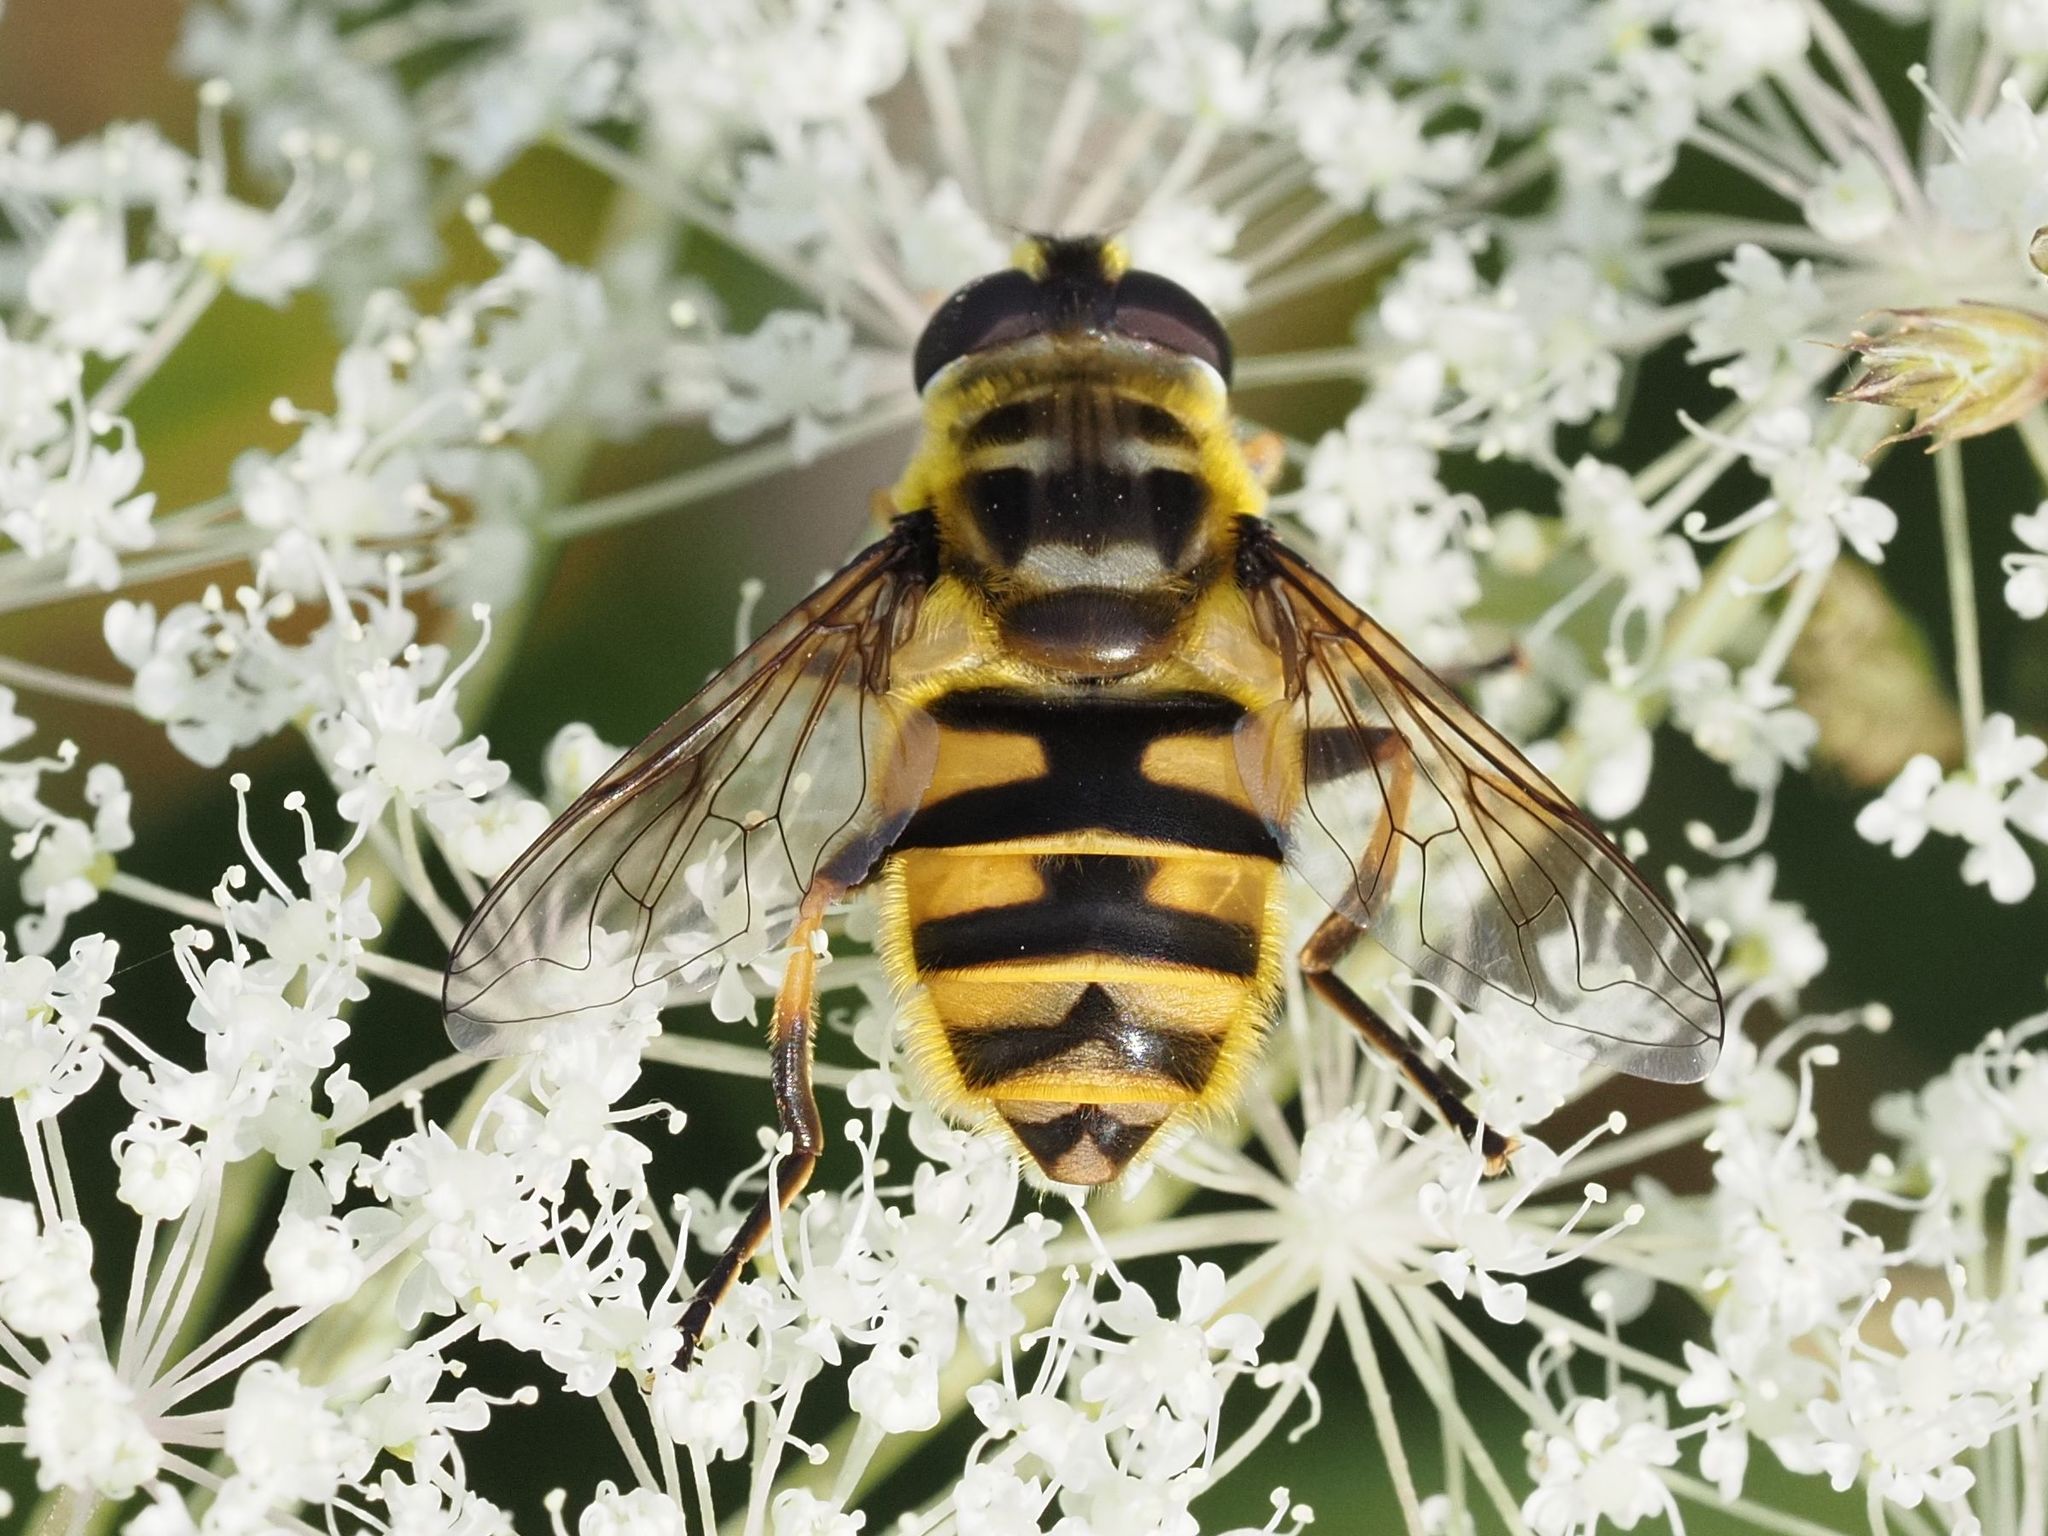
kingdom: Animalia
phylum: Arthropoda
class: Insecta
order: Diptera
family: Syrphidae
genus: Myathropa
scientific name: Myathropa florea
